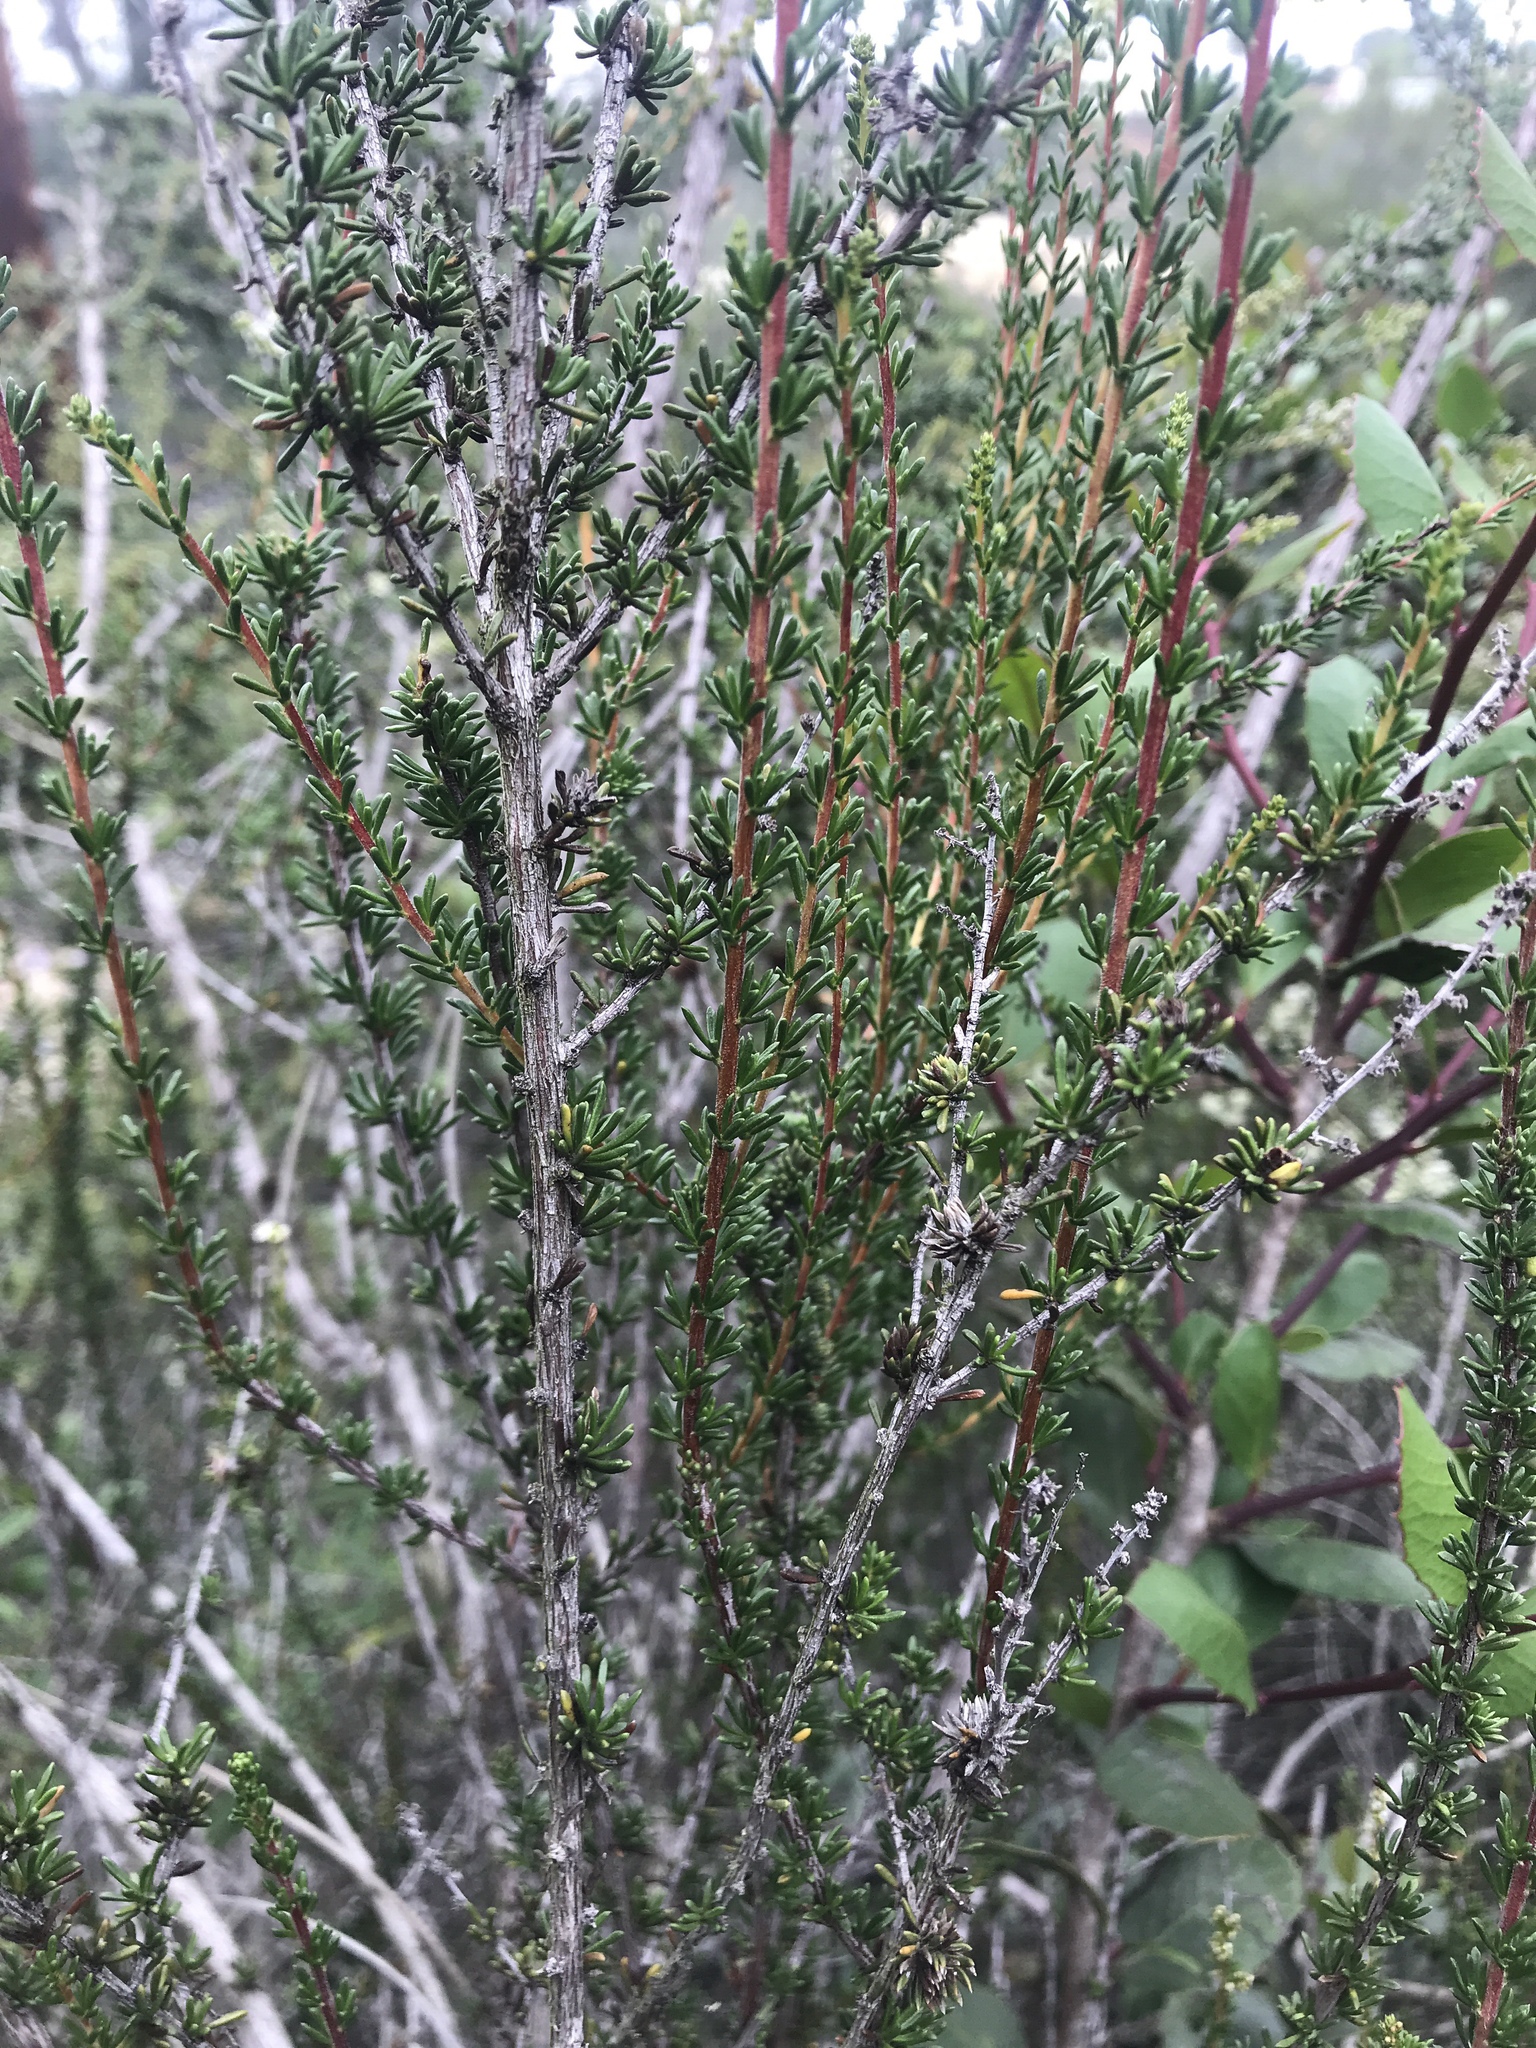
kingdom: Plantae
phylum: Tracheophyta
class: Magnoliopsida
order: Rosales
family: Rosaceae
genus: Adenostoma
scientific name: Adenostoma fasciculatum
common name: Chamise
